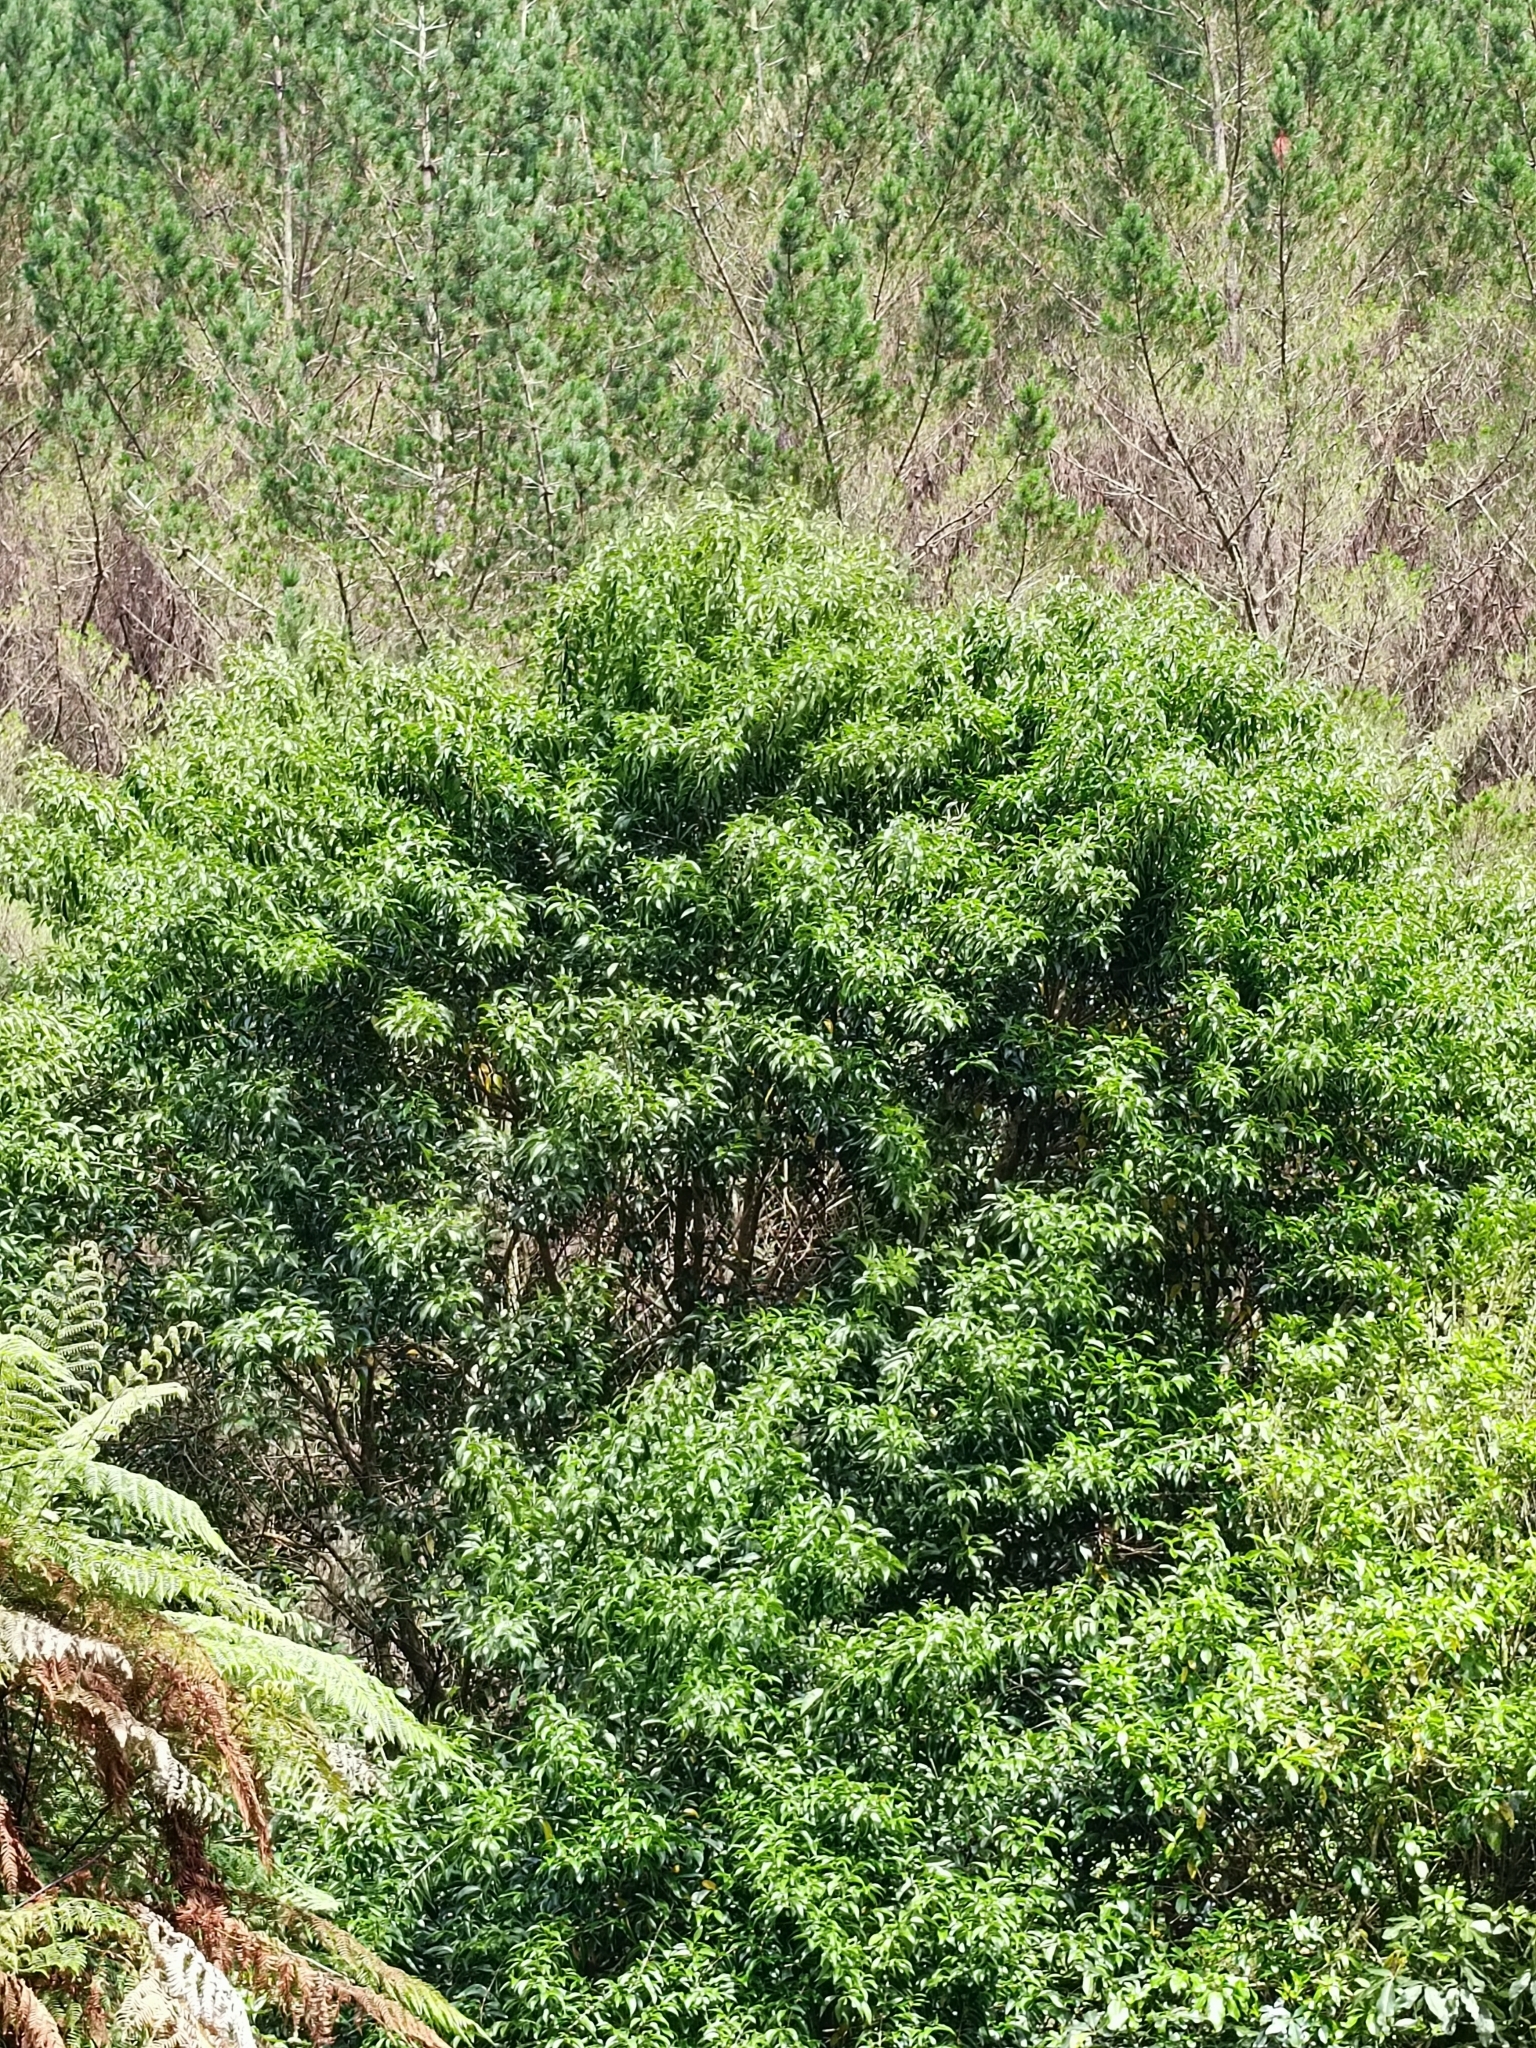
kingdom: Plantae
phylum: Tracheophyta
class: Magnoliopsida
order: Lamiales
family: Oleaceae
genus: Ligustrum
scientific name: Ligustrum lucidum
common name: Glossy privet
